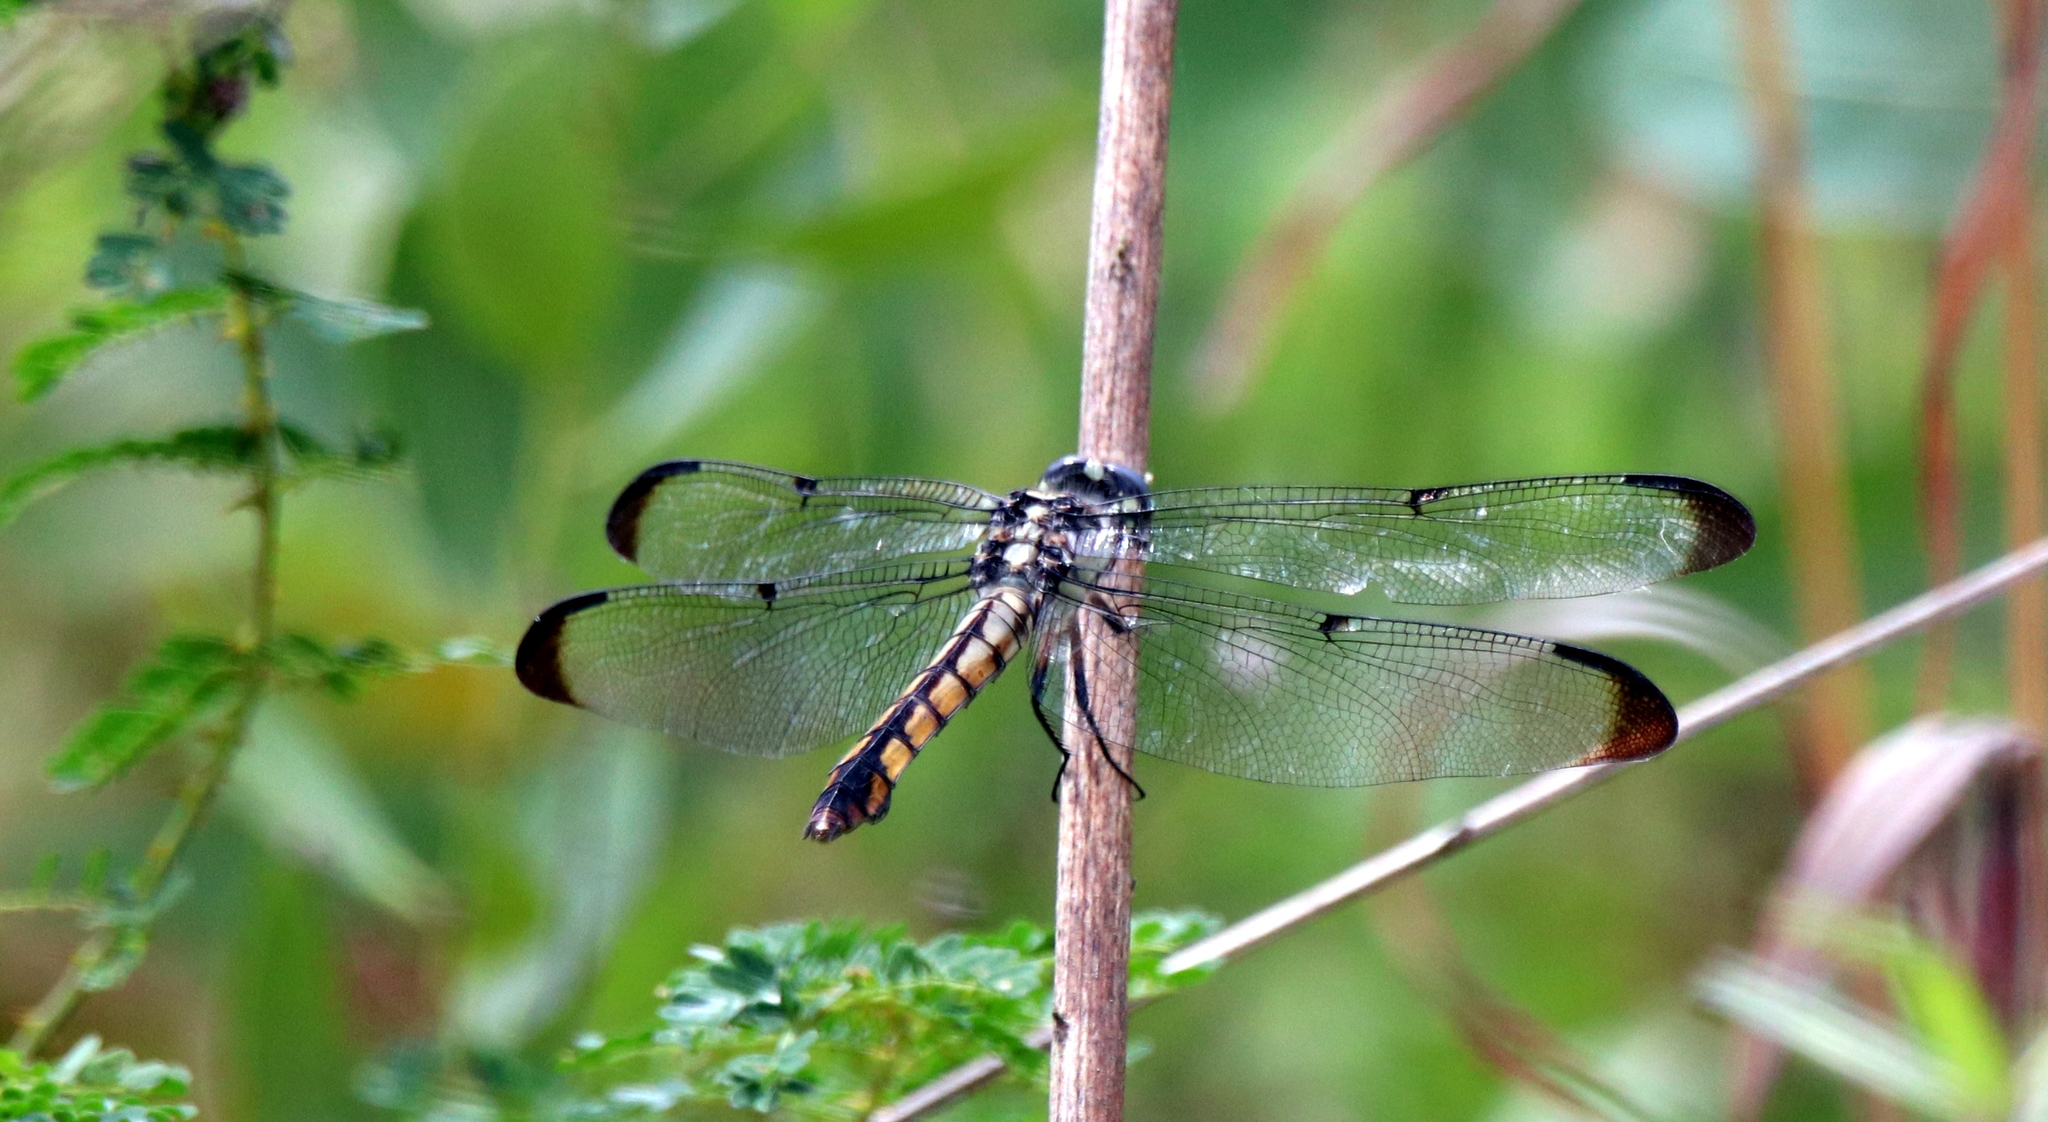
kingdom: Animalia
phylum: Arthropoda
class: Insecta
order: Odonata
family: Libellulidae
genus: Libellula
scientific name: Libellula vibrans
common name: Great blue skimmer
